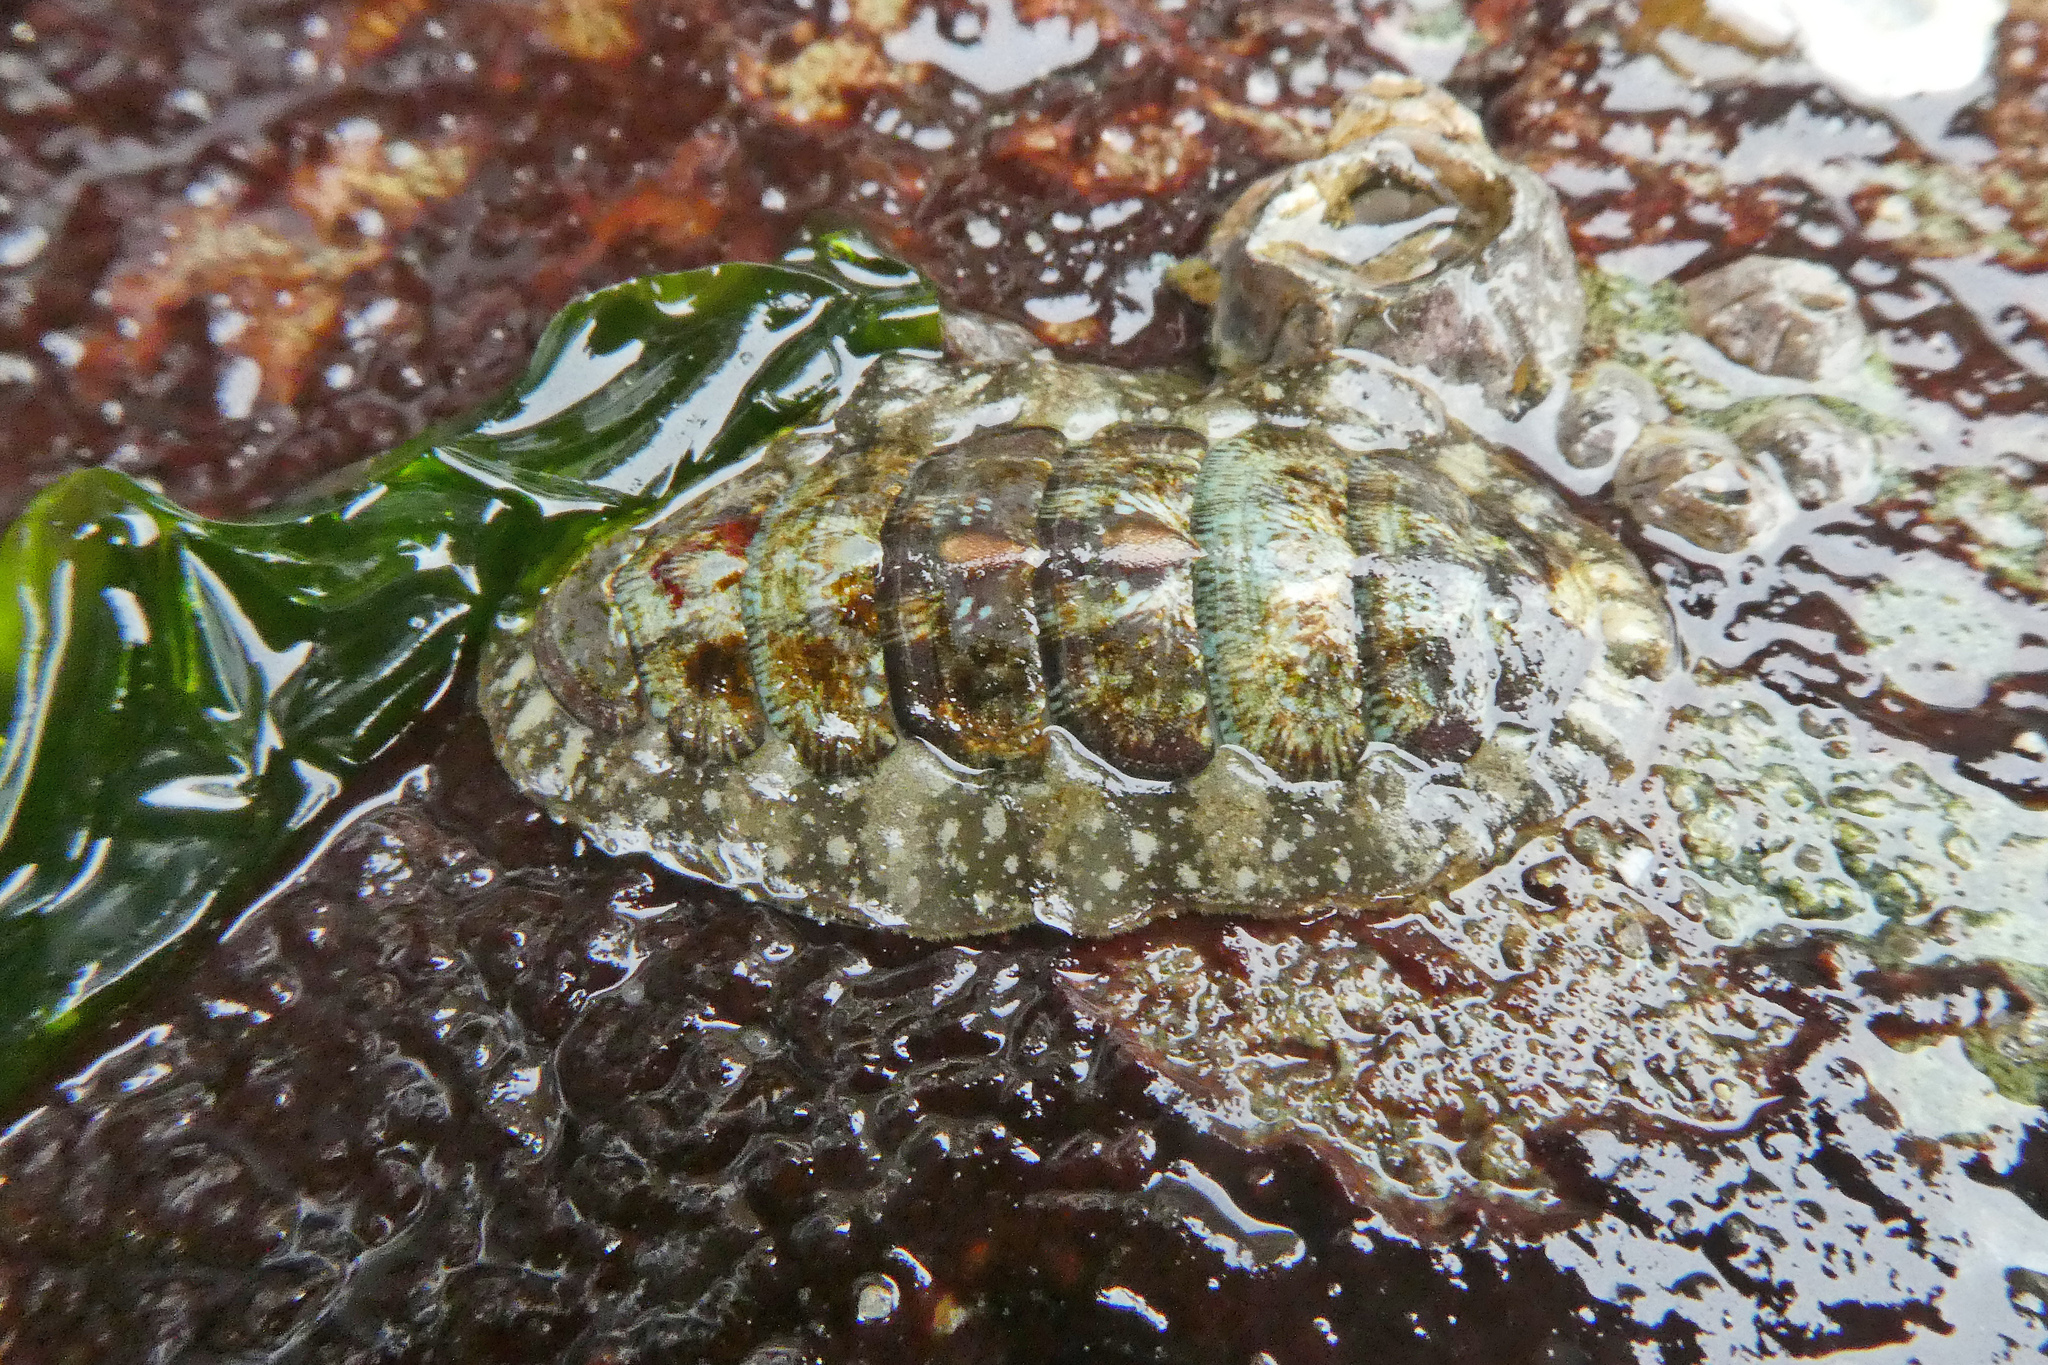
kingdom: Animalia
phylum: Mollusca
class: Polyplacophora
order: Chitonida
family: Tonicellidae
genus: Cyanoplax
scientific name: Cyanoplax dentiens
